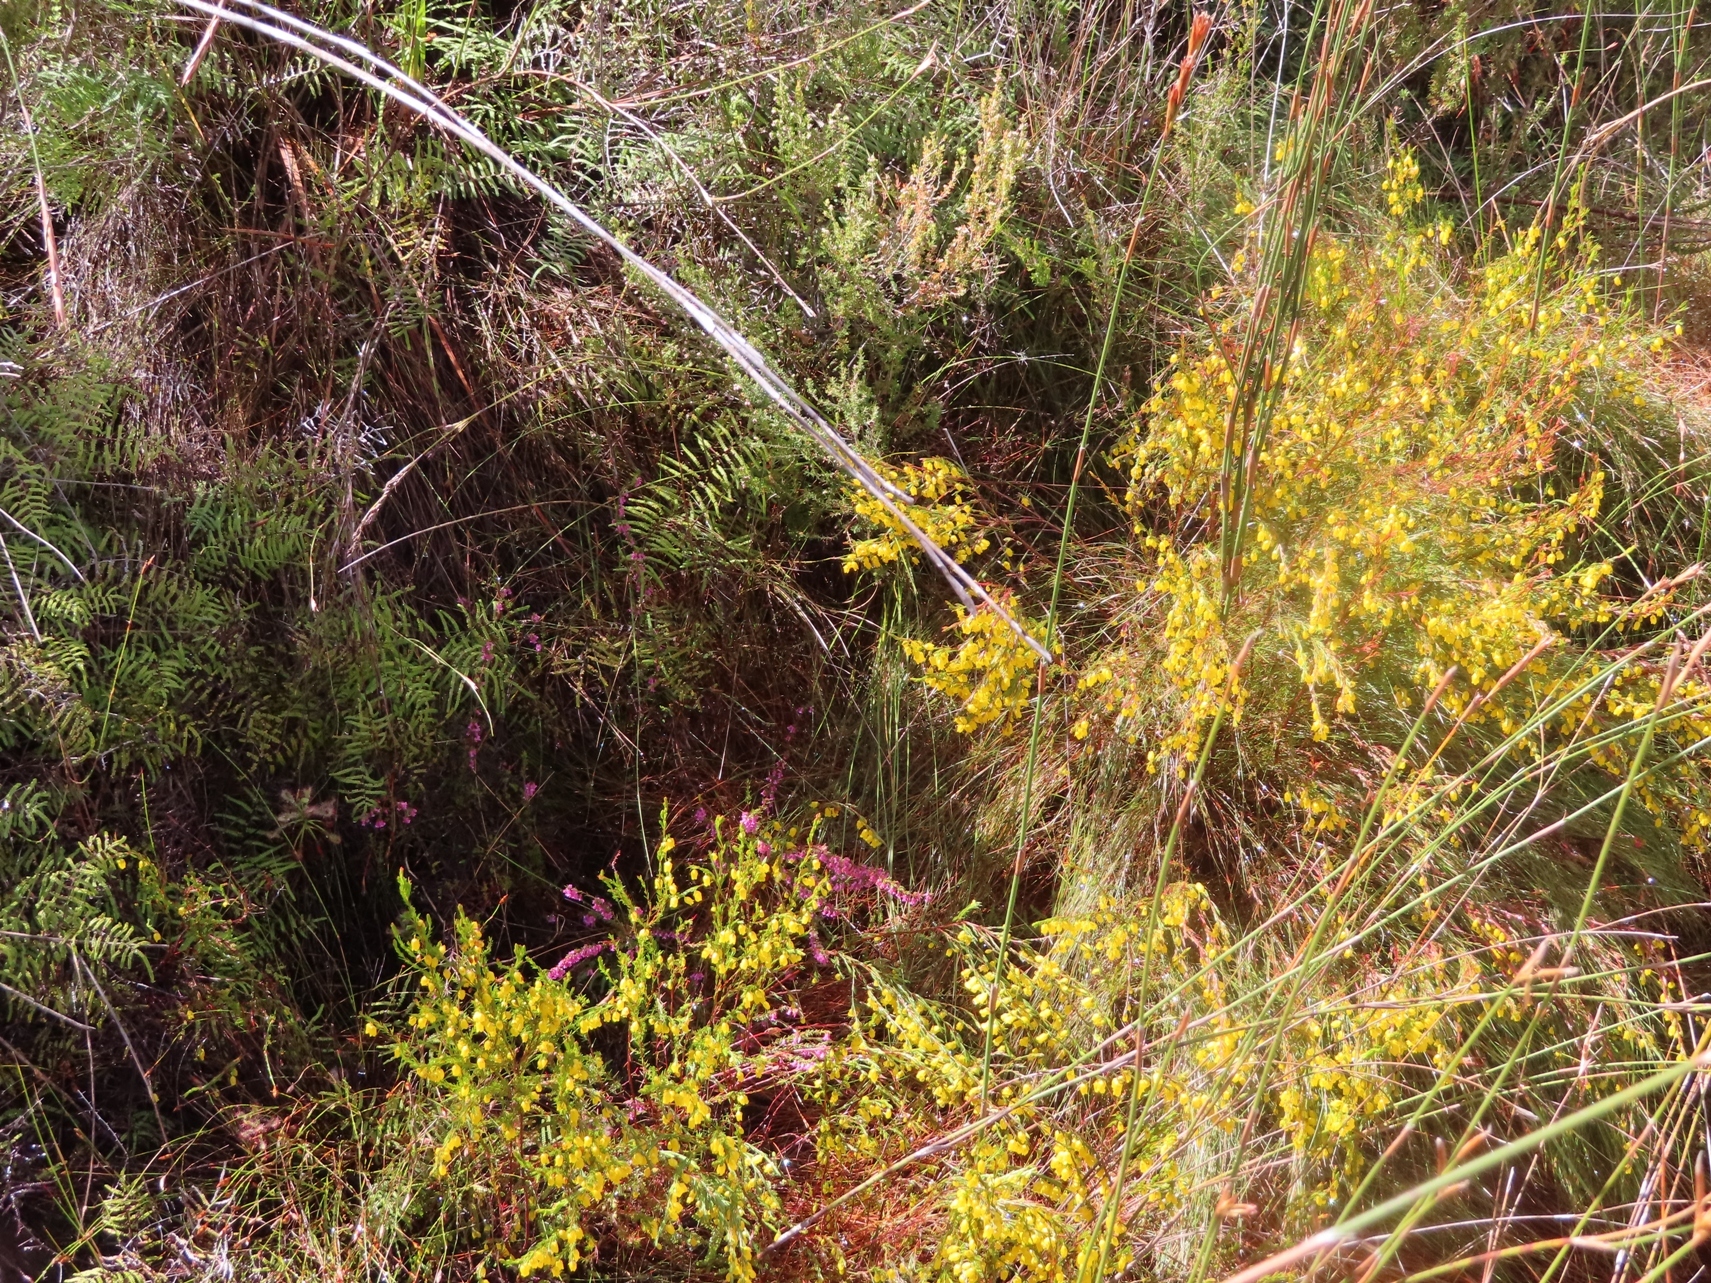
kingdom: Plantae
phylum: Tracheophyta
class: Magnoliopsida
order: Ericales
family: Ericaceae
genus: Erica
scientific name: Erica campanularis
